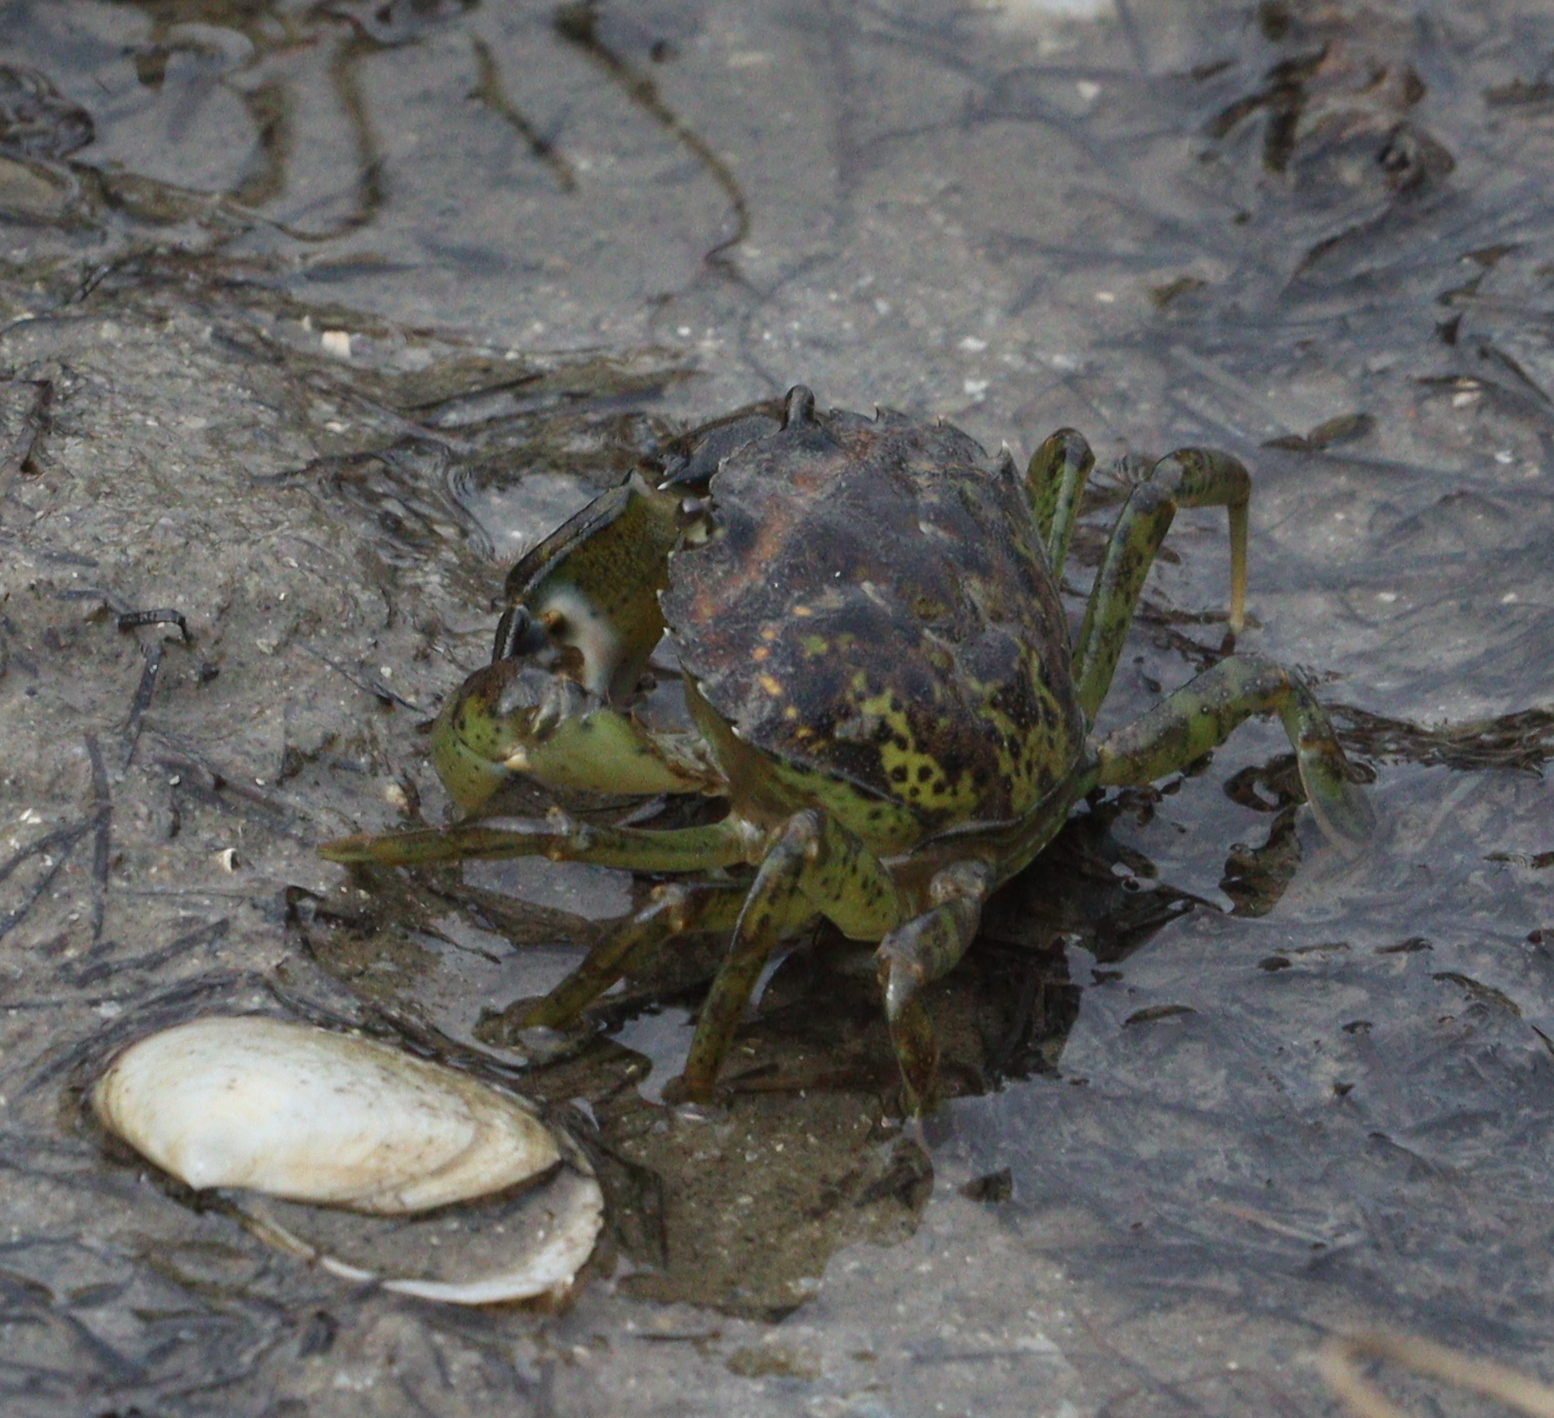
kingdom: Animalia
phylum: Arthropoda
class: Malacostraca
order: Decapoda
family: Carcinidae
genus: Carcinus
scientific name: Carcinus maenas
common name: European green crab
